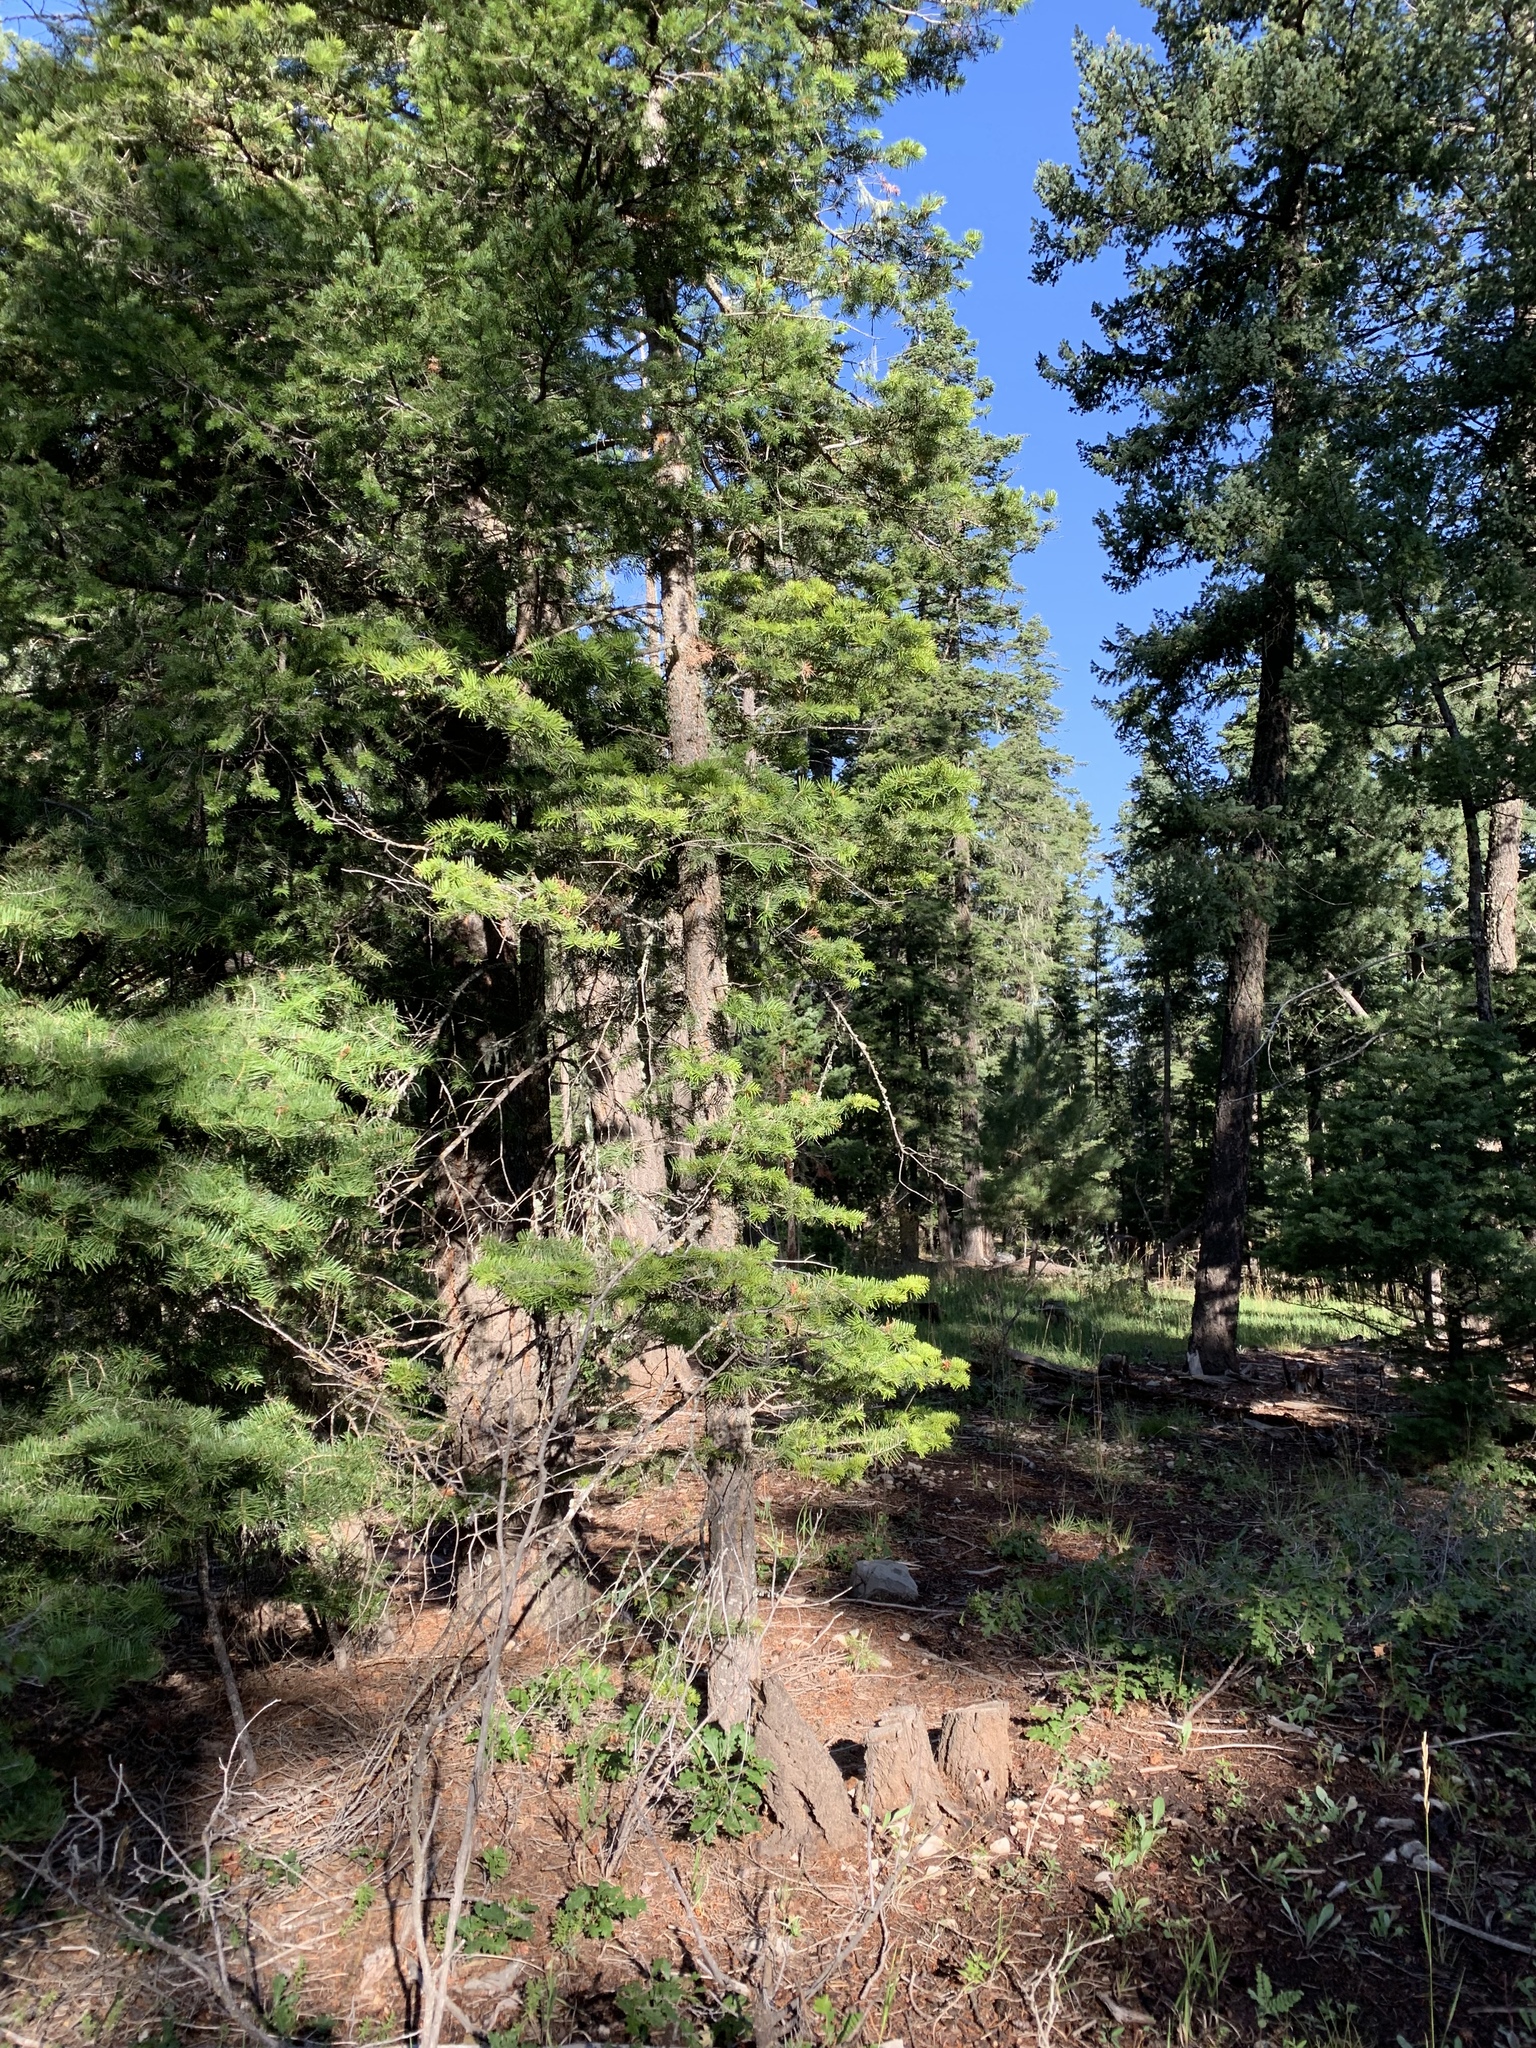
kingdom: Plantae
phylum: Tracheophyta
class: Pinopsida
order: Pinales
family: Pinaceae
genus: Abies
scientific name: Abies concolor
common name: Colorado fir
